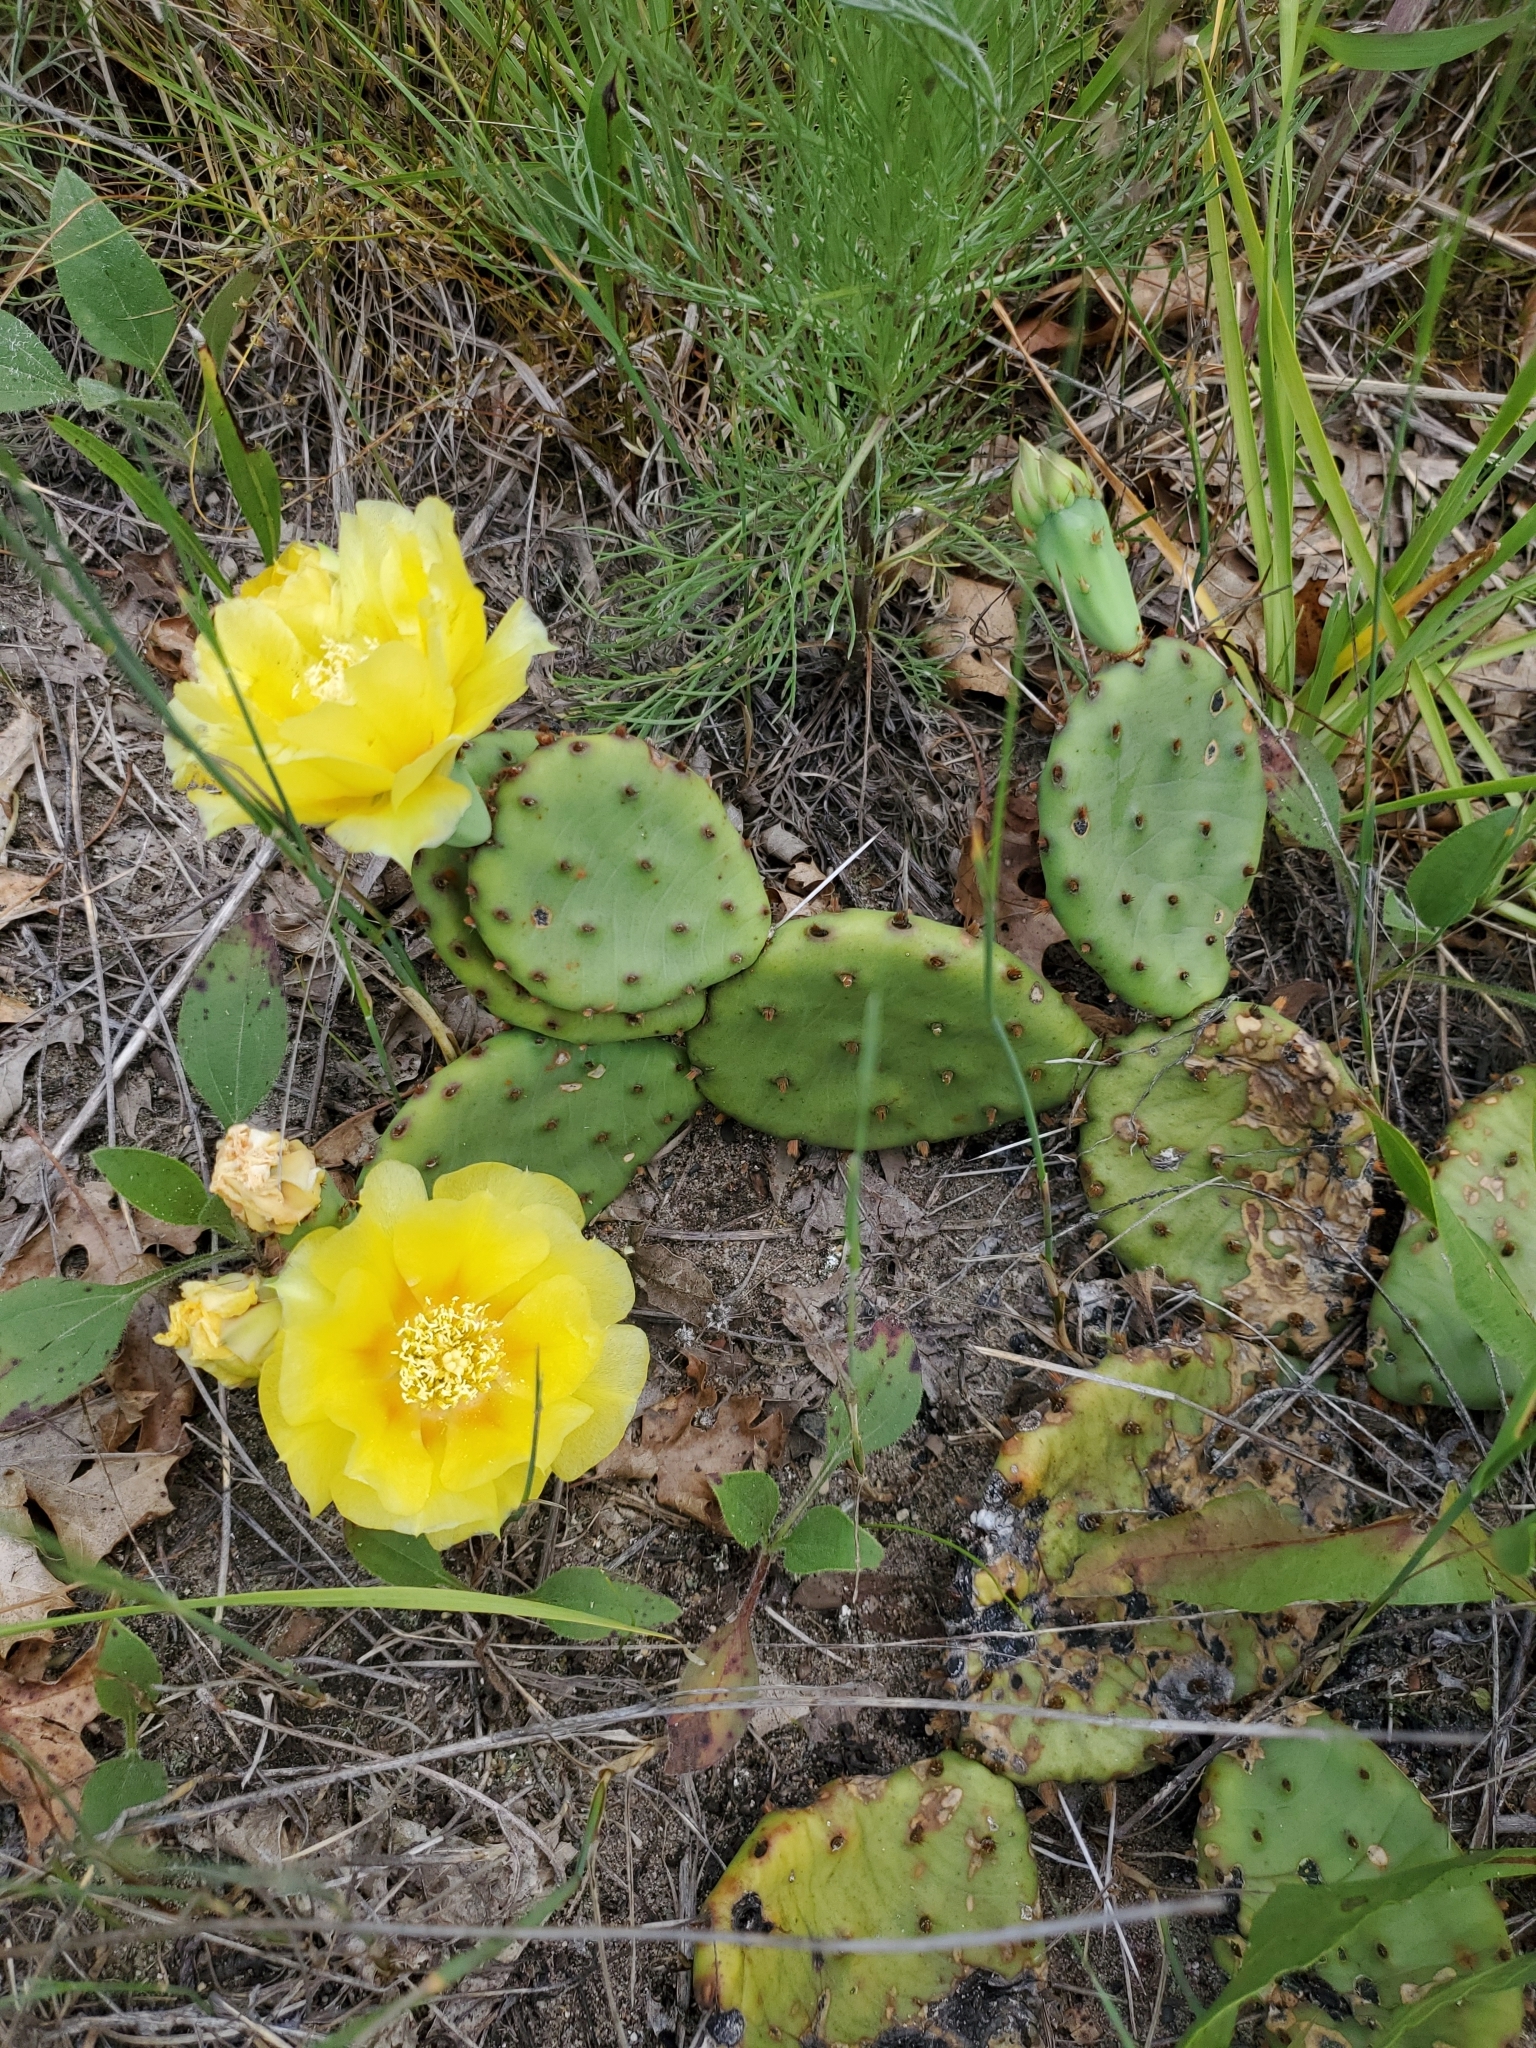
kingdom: Plantae
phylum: Tracheophyta
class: Magnoliopsida
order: Caryophyllales
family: Cactaceae
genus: Opuntia
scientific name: Opuntia humifusa
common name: Eastern prickly-pear
